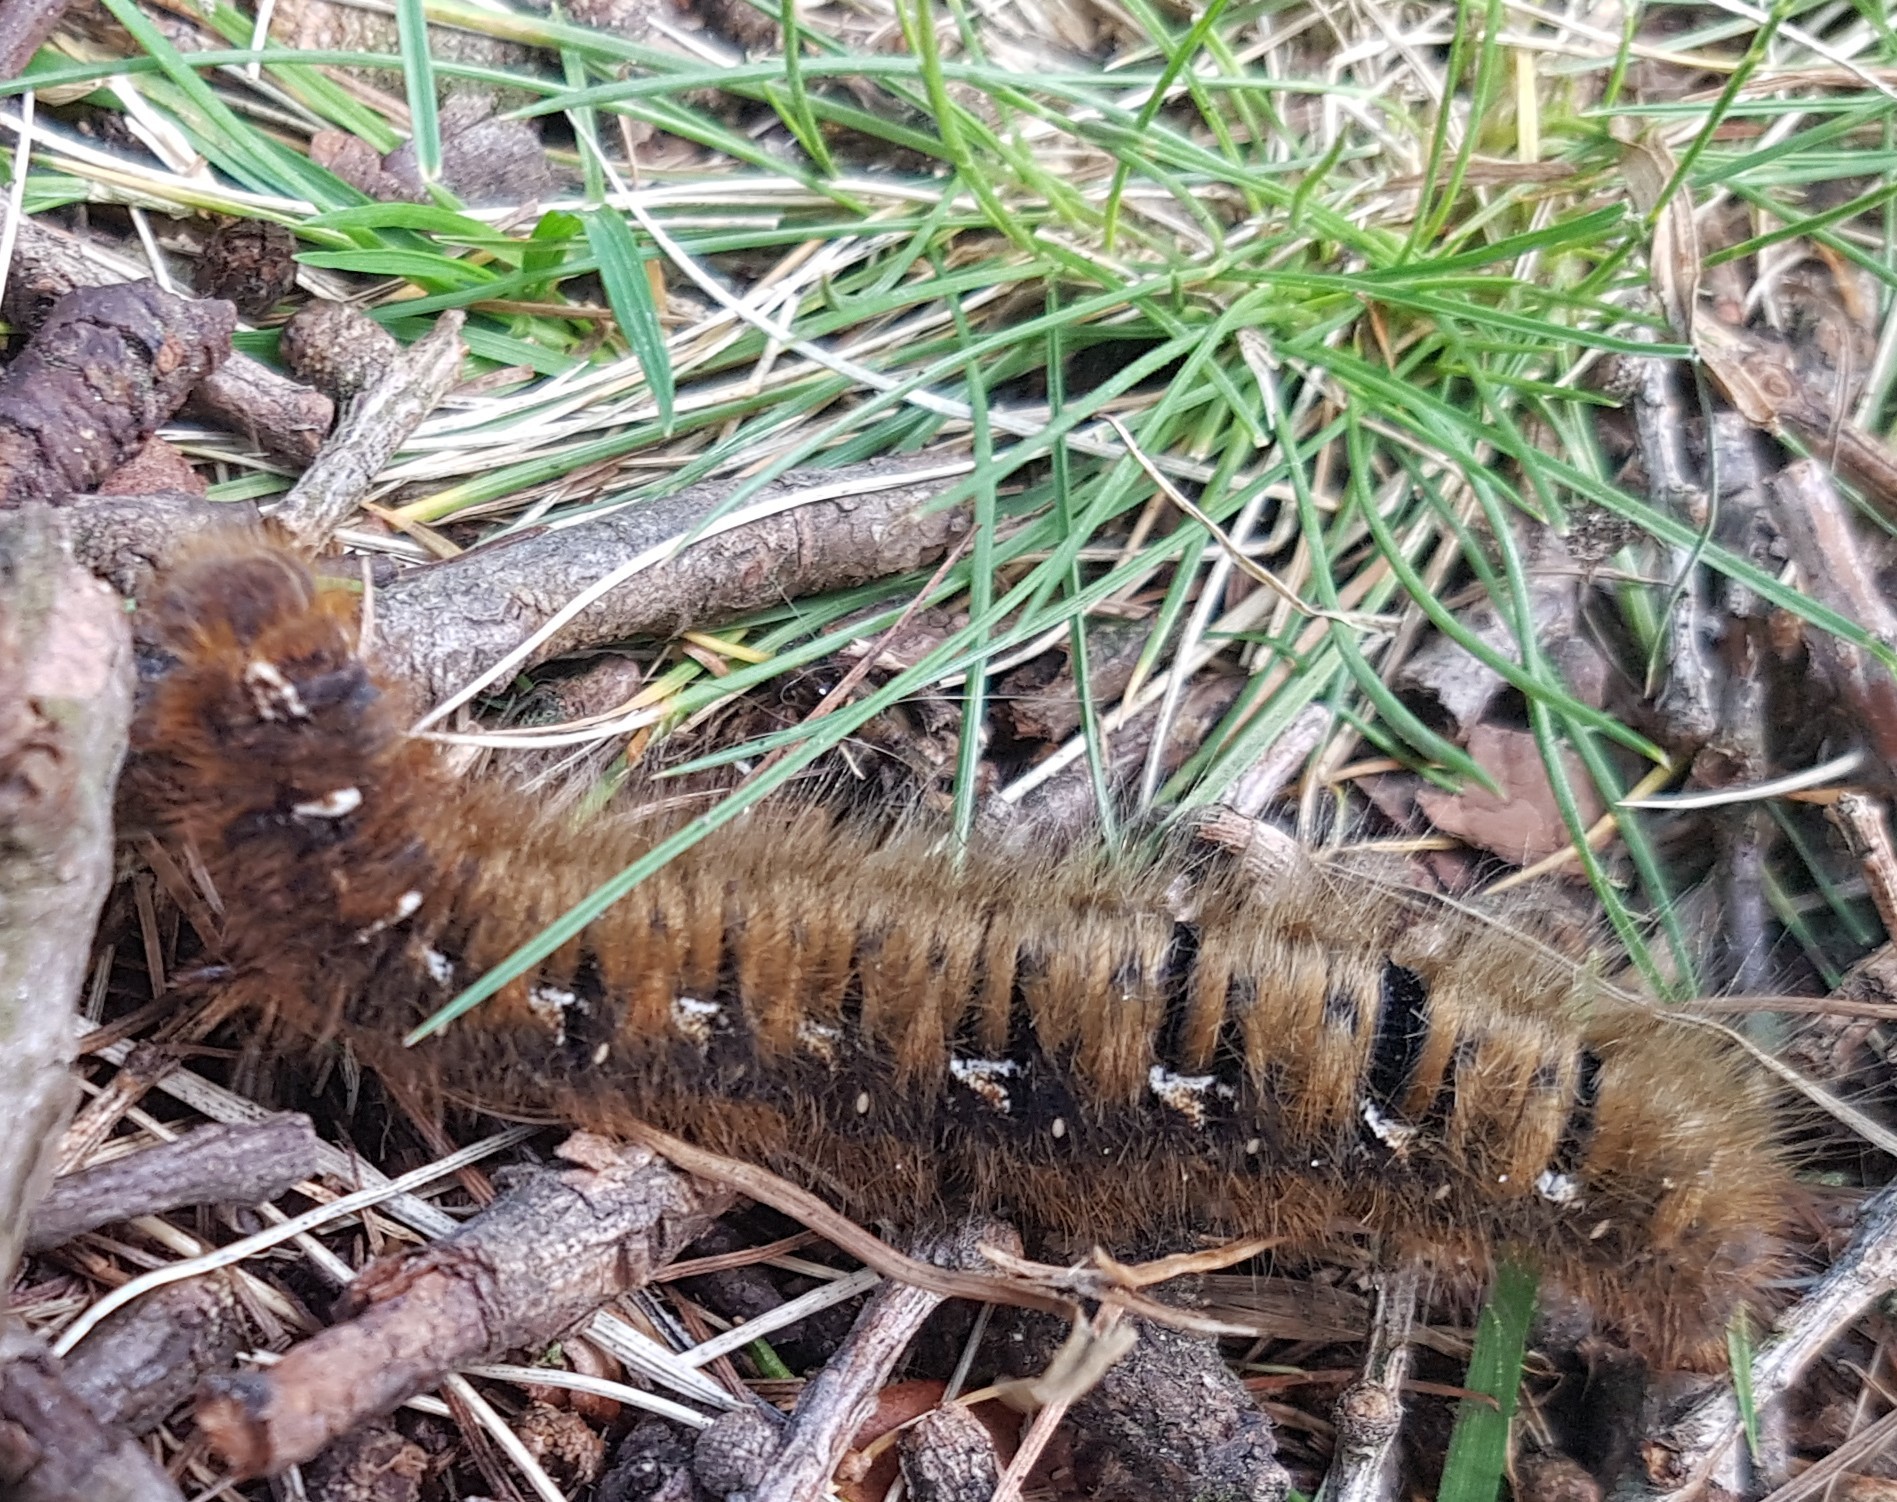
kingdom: Animalia
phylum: Arthropoda
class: Insecta
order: Lepidoptera
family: Lasiocampidae
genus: Lasiocampa
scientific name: Lasiocampa quercus
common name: Oak eggar
